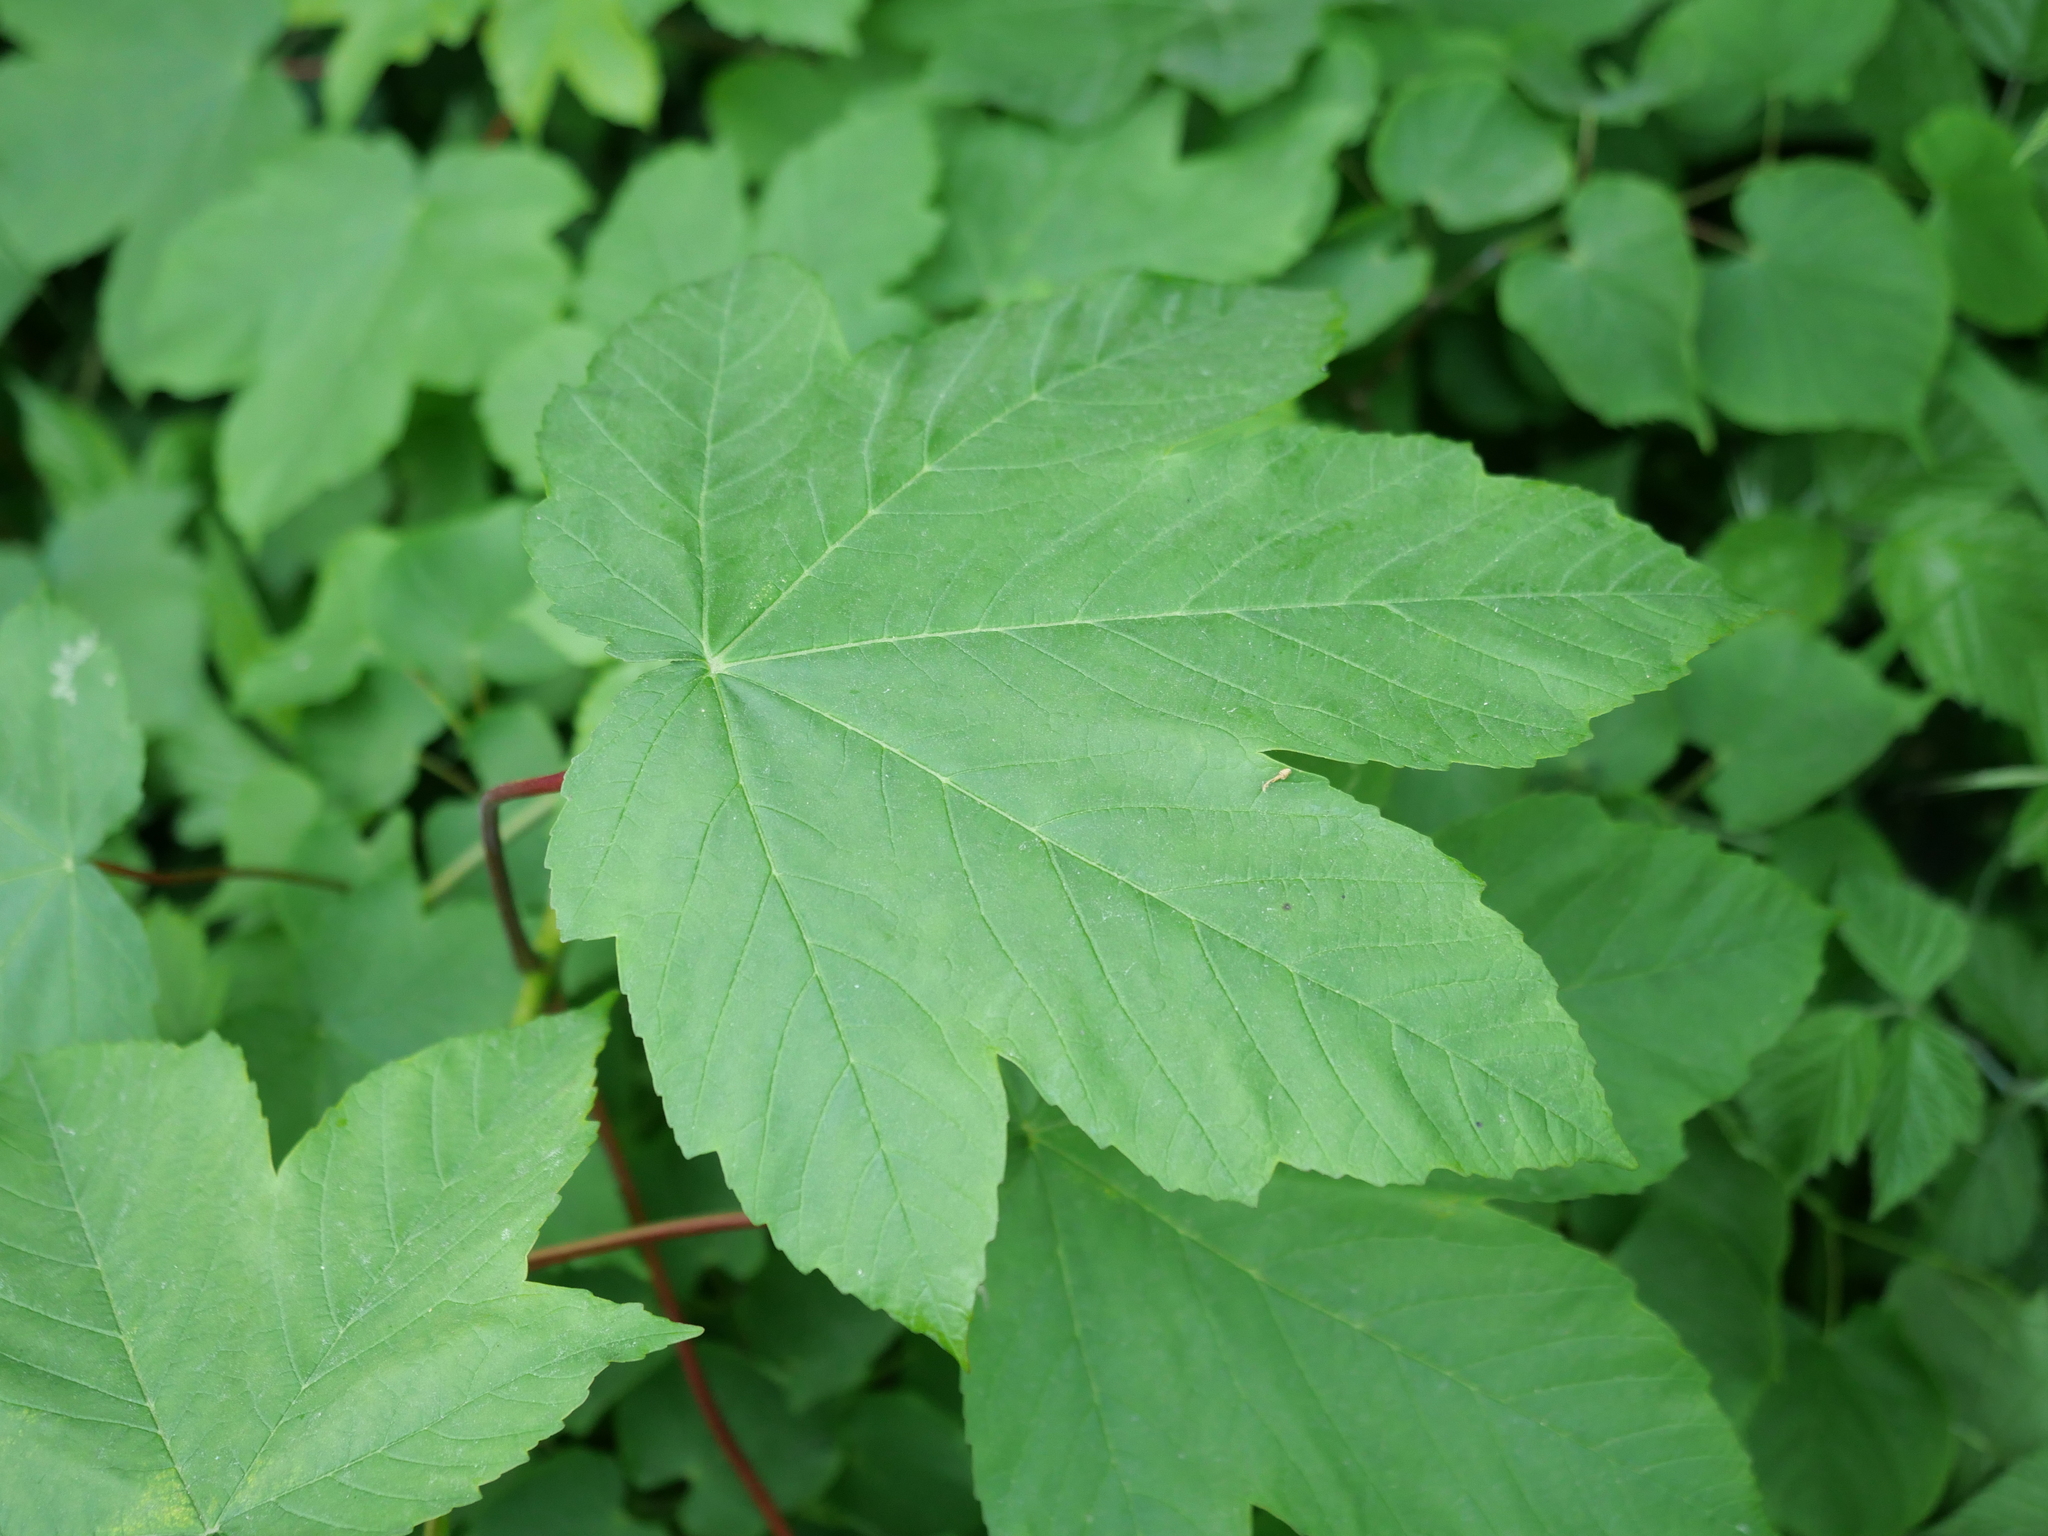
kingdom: Plantae
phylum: Tracheophyta
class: Magnoliopsida
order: Sapindales
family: Sapindaceae
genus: Acer
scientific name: Acer pseudoplatanus
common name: Sycamore
